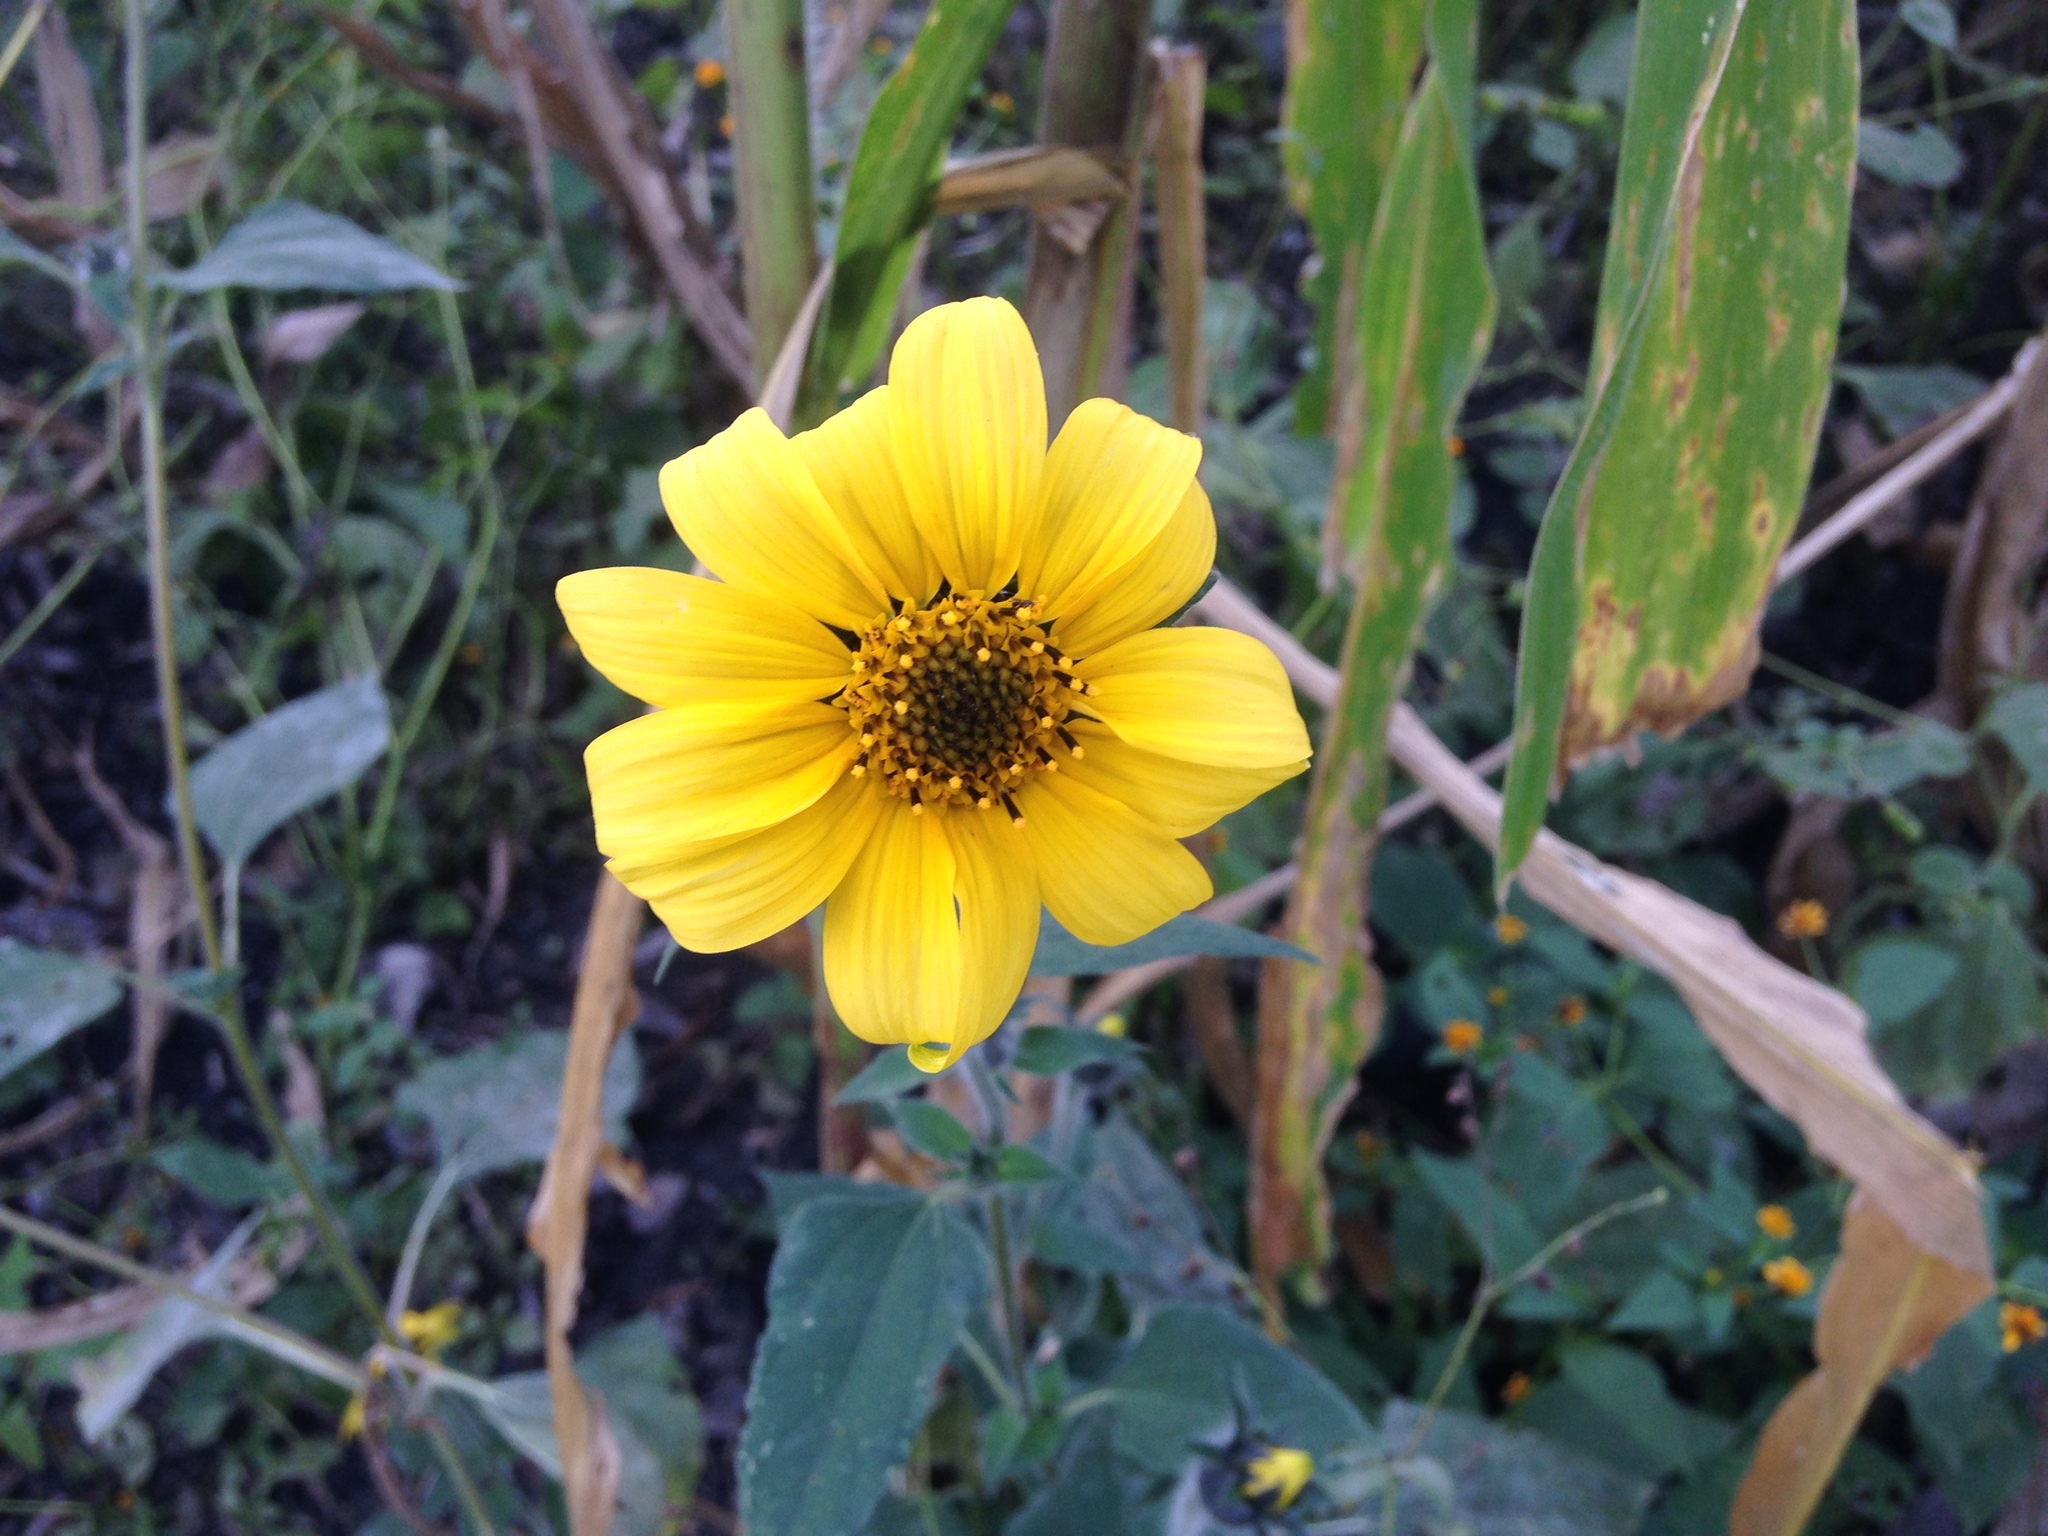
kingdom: Plantae
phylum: Tracheophyta
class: Magnoliopsida
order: Asterales
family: Asteraceae
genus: Tithonia
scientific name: Tithonia tubaeformis
